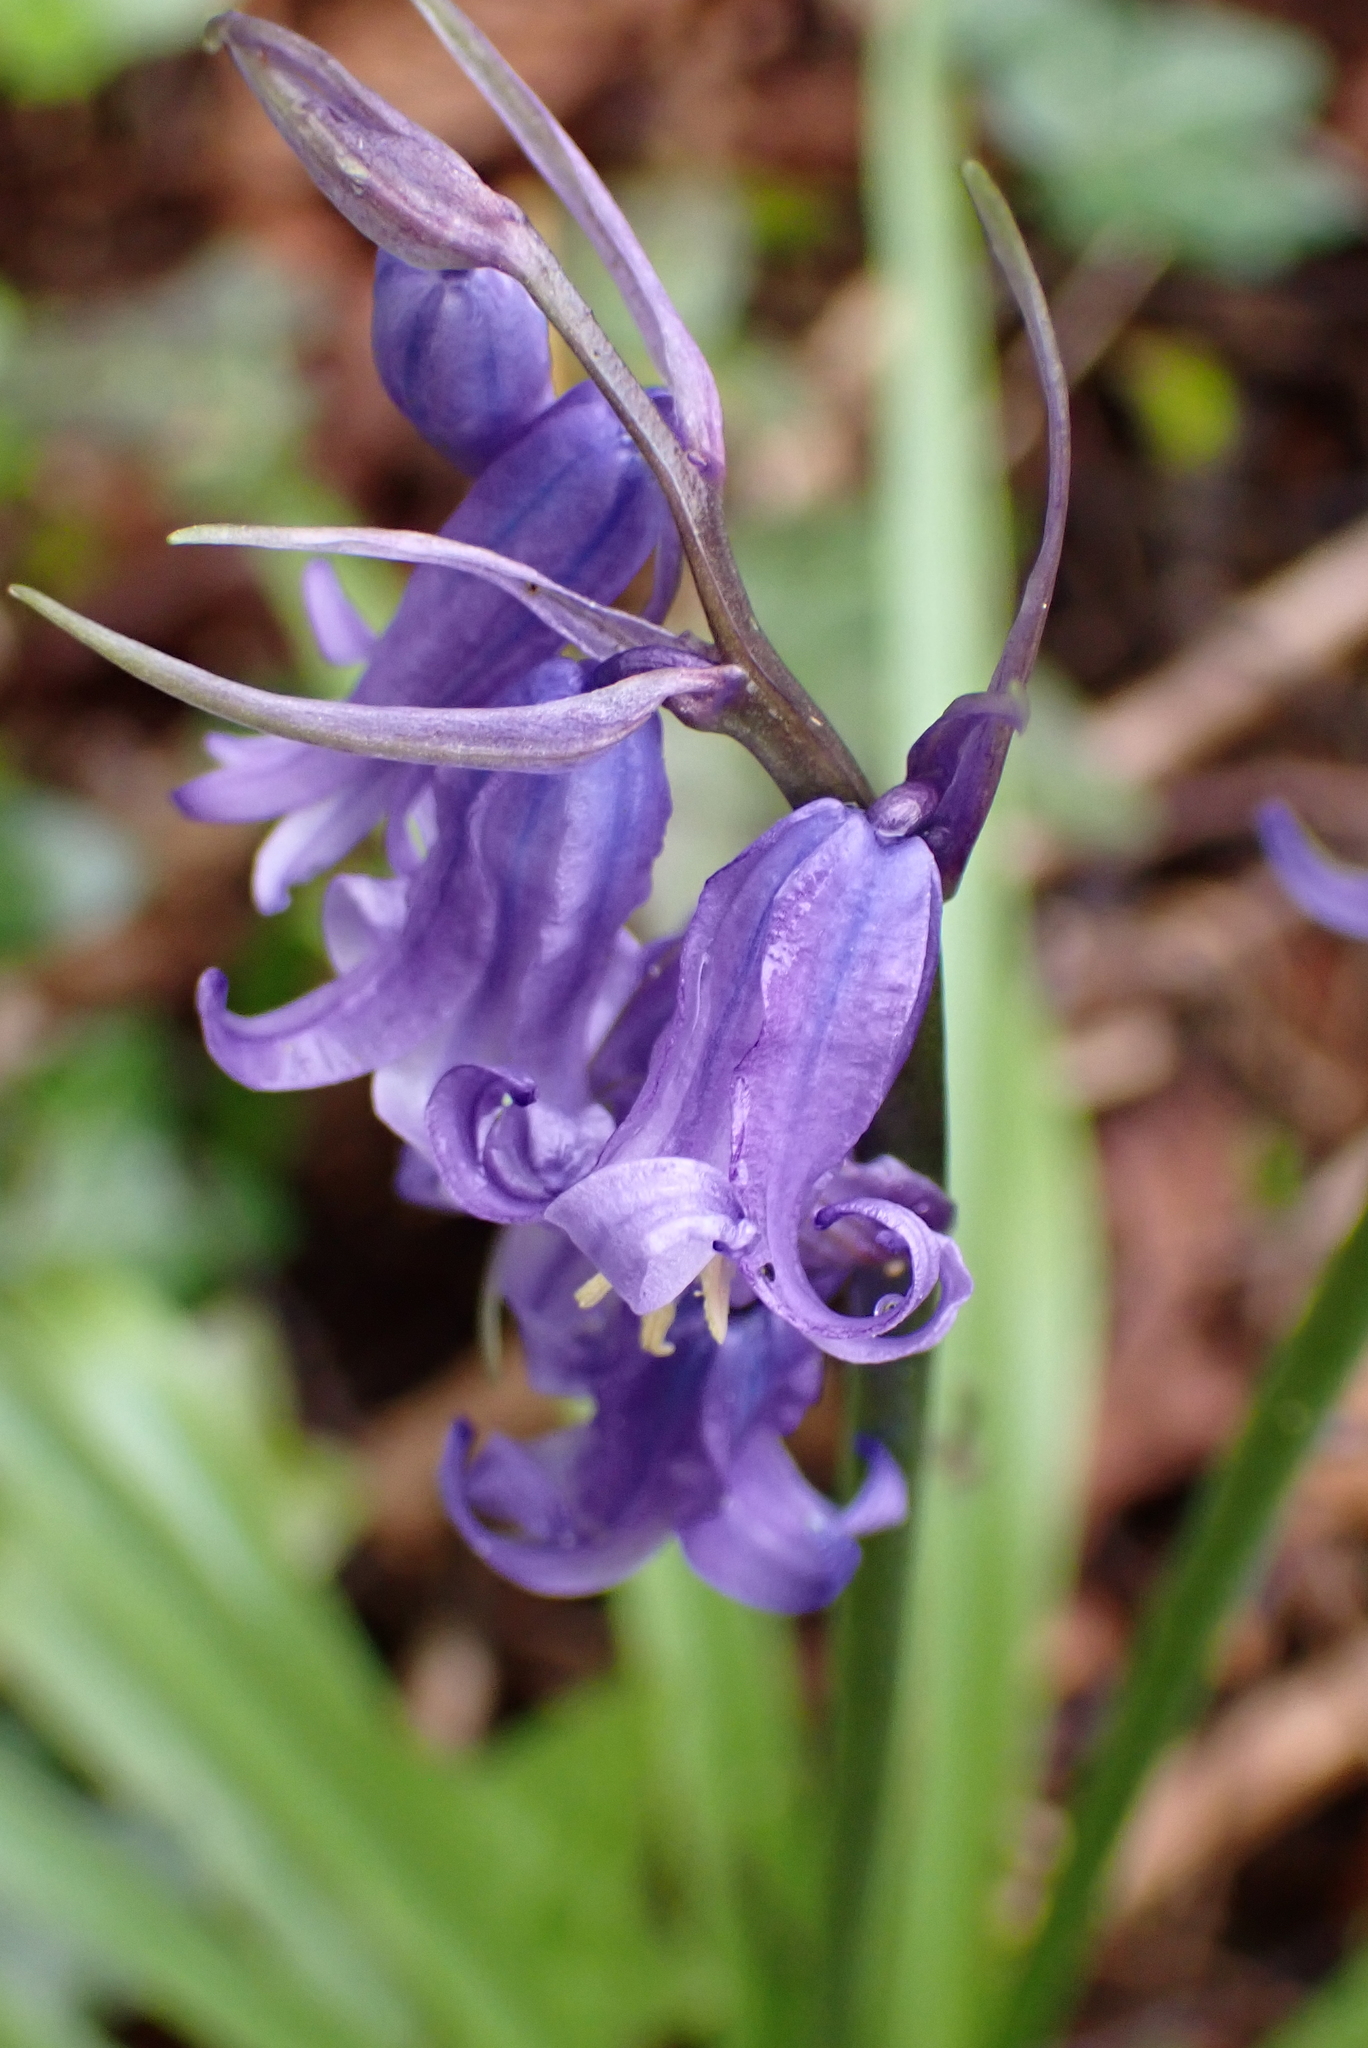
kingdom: Plantae
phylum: Tracheophyta
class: Liliopsida
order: Asparagales
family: Asparagaceae
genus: Hyacinthoides
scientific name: Hyacinthoides non-scripta
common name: Bluebell
